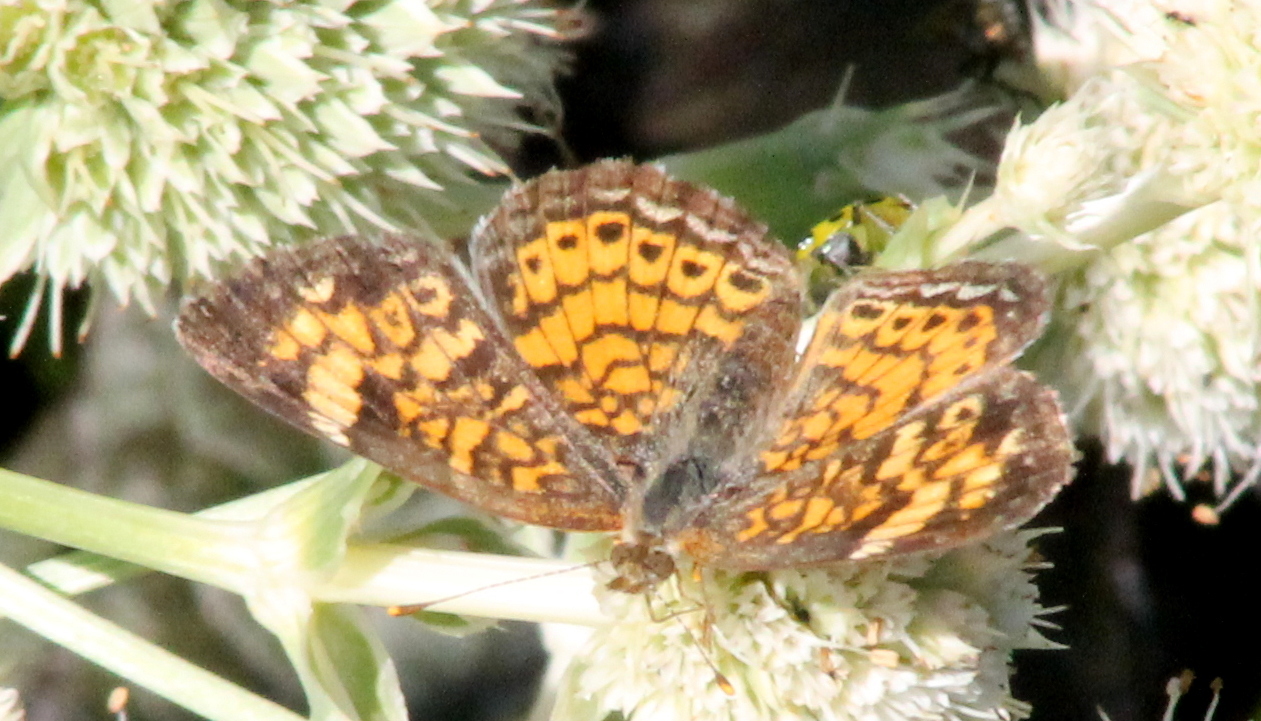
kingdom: Animalia
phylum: Arthropoda
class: Insecta
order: Lepidoptera
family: Nymphalidae
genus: Phyciodes
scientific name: Phyciodes tharos
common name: Pearl crescent
